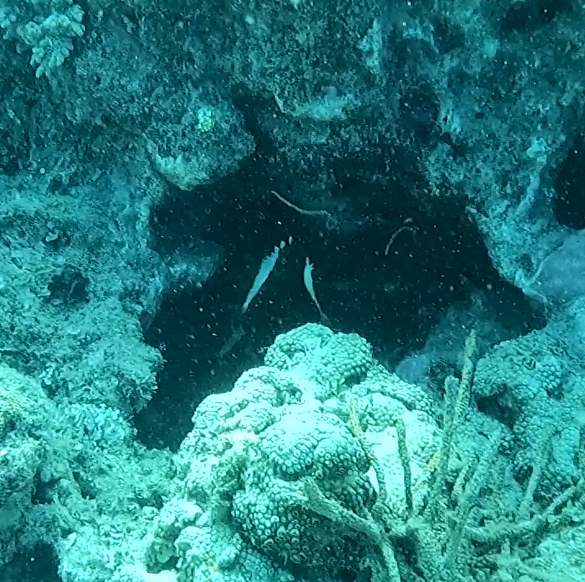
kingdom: Animalia
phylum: Chordata
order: Perciformes
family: Chaetodontidae
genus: Heniochus
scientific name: Heniochus varius
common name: Horned bannerfish
